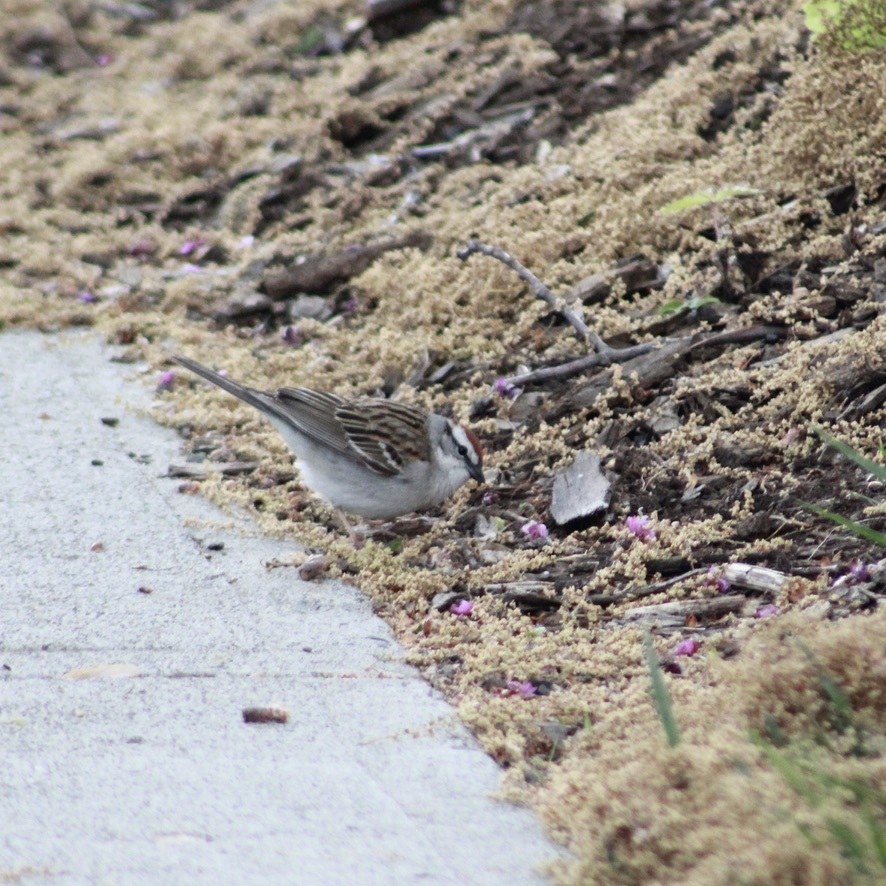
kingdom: Animalia
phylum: Chordata
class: Aves
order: Passeriformes
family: Passerellidae
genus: Spizella
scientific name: Spizella passerina
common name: Chipping sparrow
